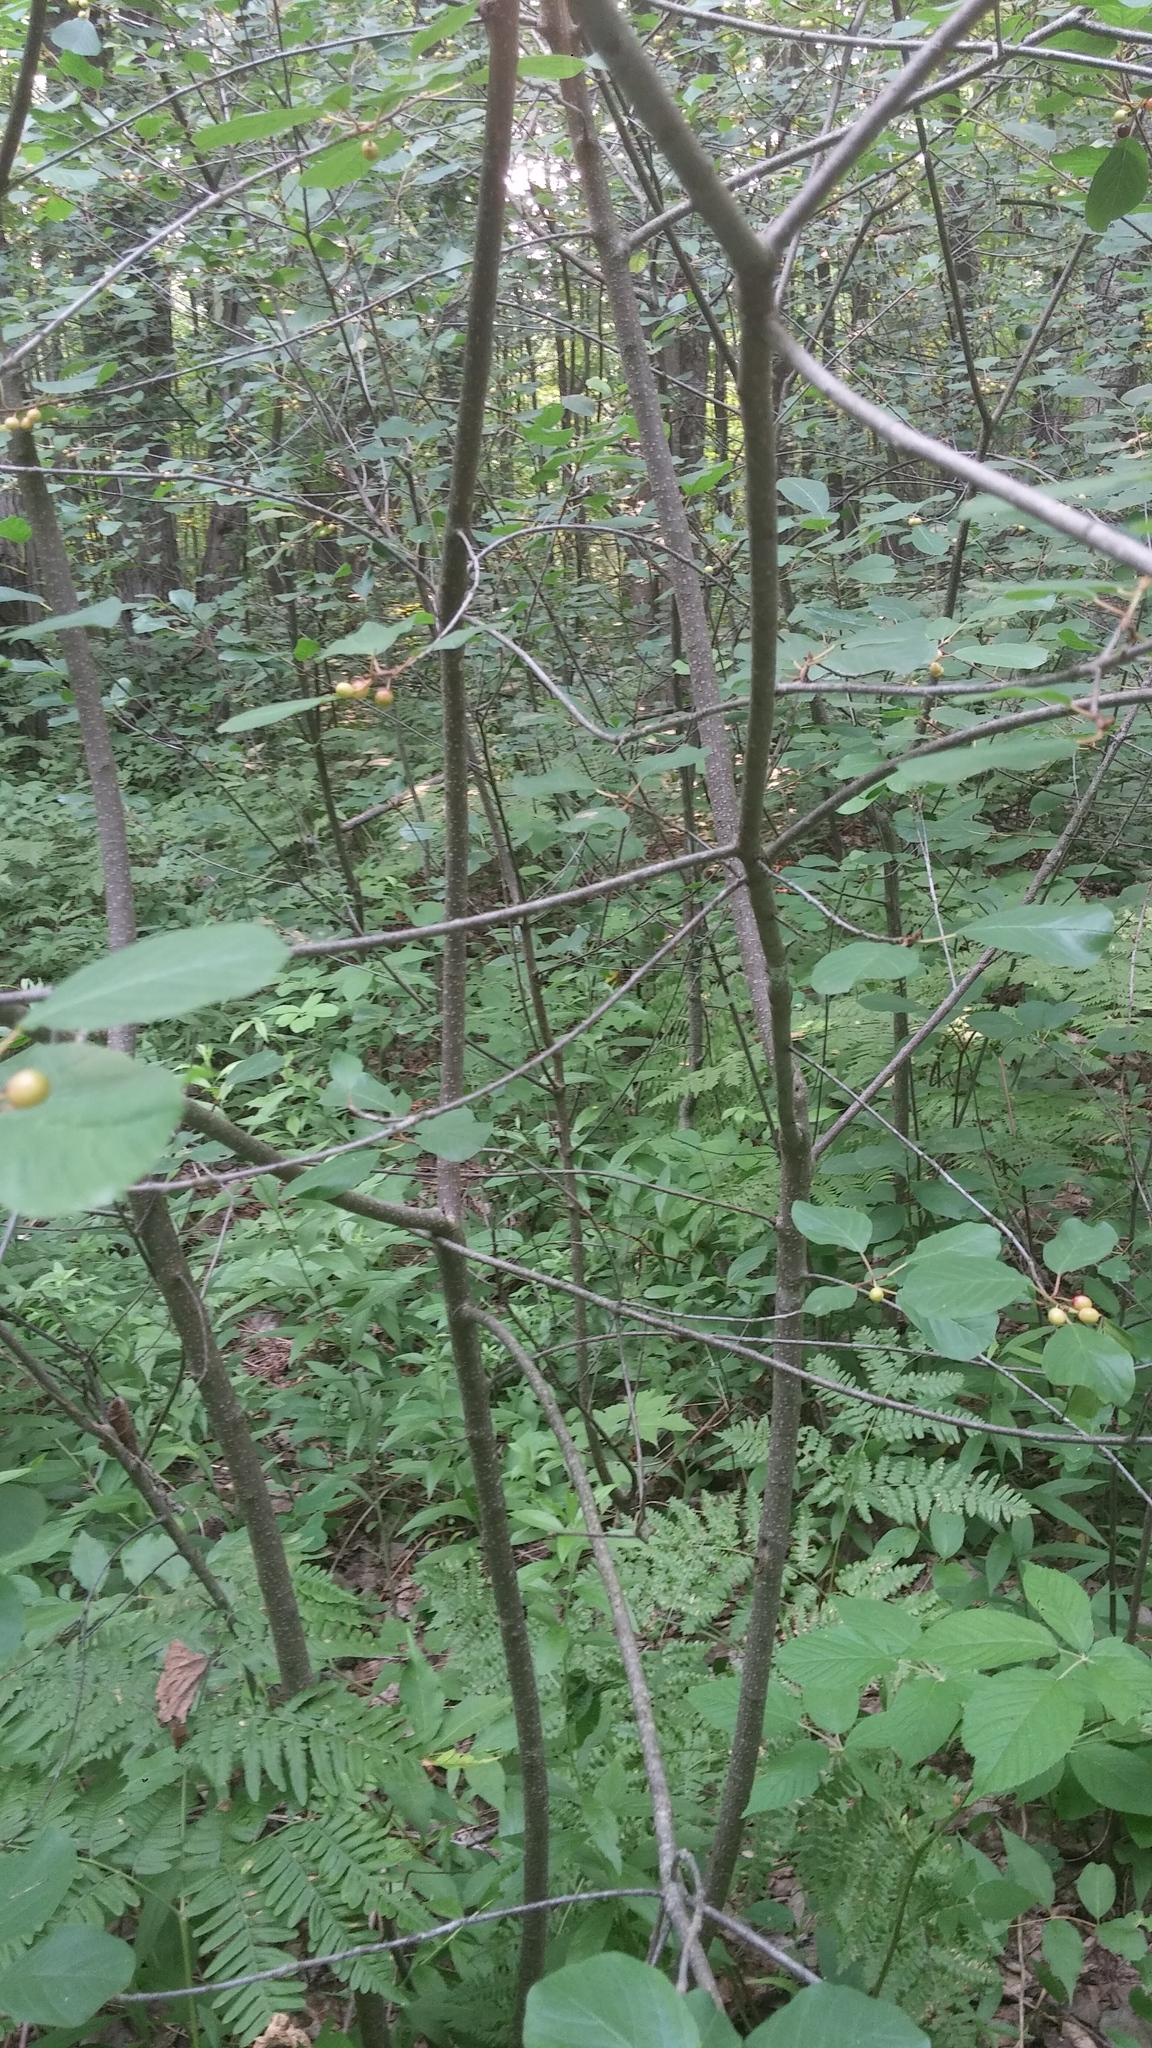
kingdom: Plantae
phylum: Tracheophyta
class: Magnoliopsida
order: Rosales
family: Rhamnaceae
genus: Frangula
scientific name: Frangula alnus
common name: Alder buckthorn
